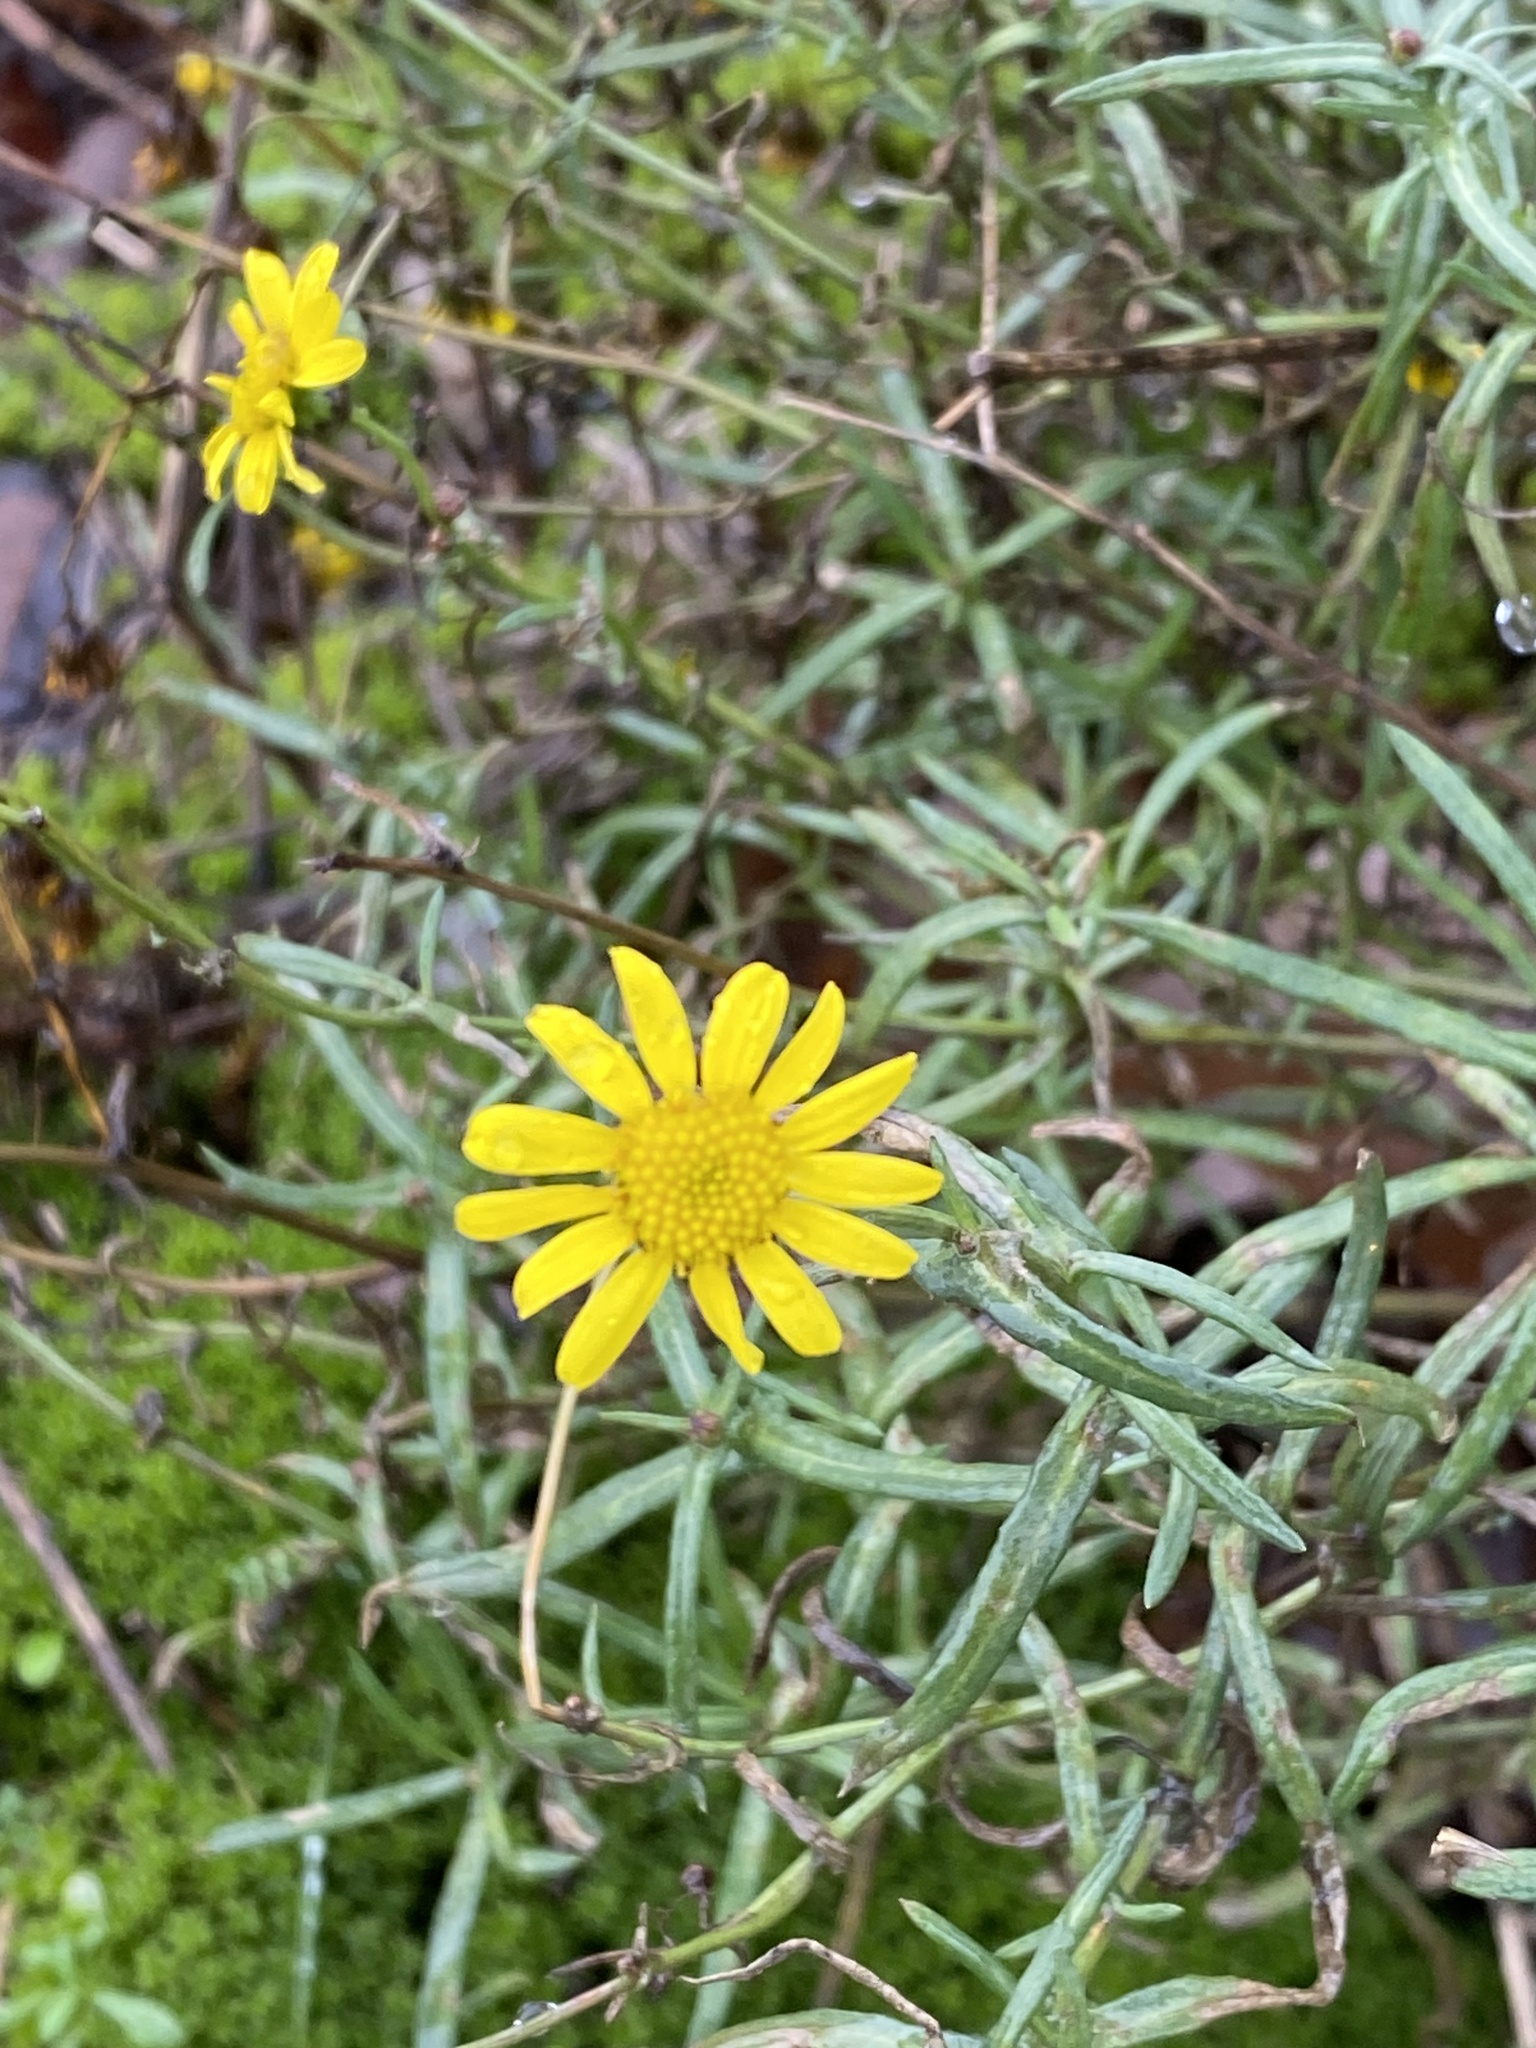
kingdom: Plantae
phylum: Tracheophyta
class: Magnoliopsida
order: Asterales
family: Asteraceae
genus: Senecio
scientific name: Senecio inaequidens
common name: Narrow-leaved ragwort
